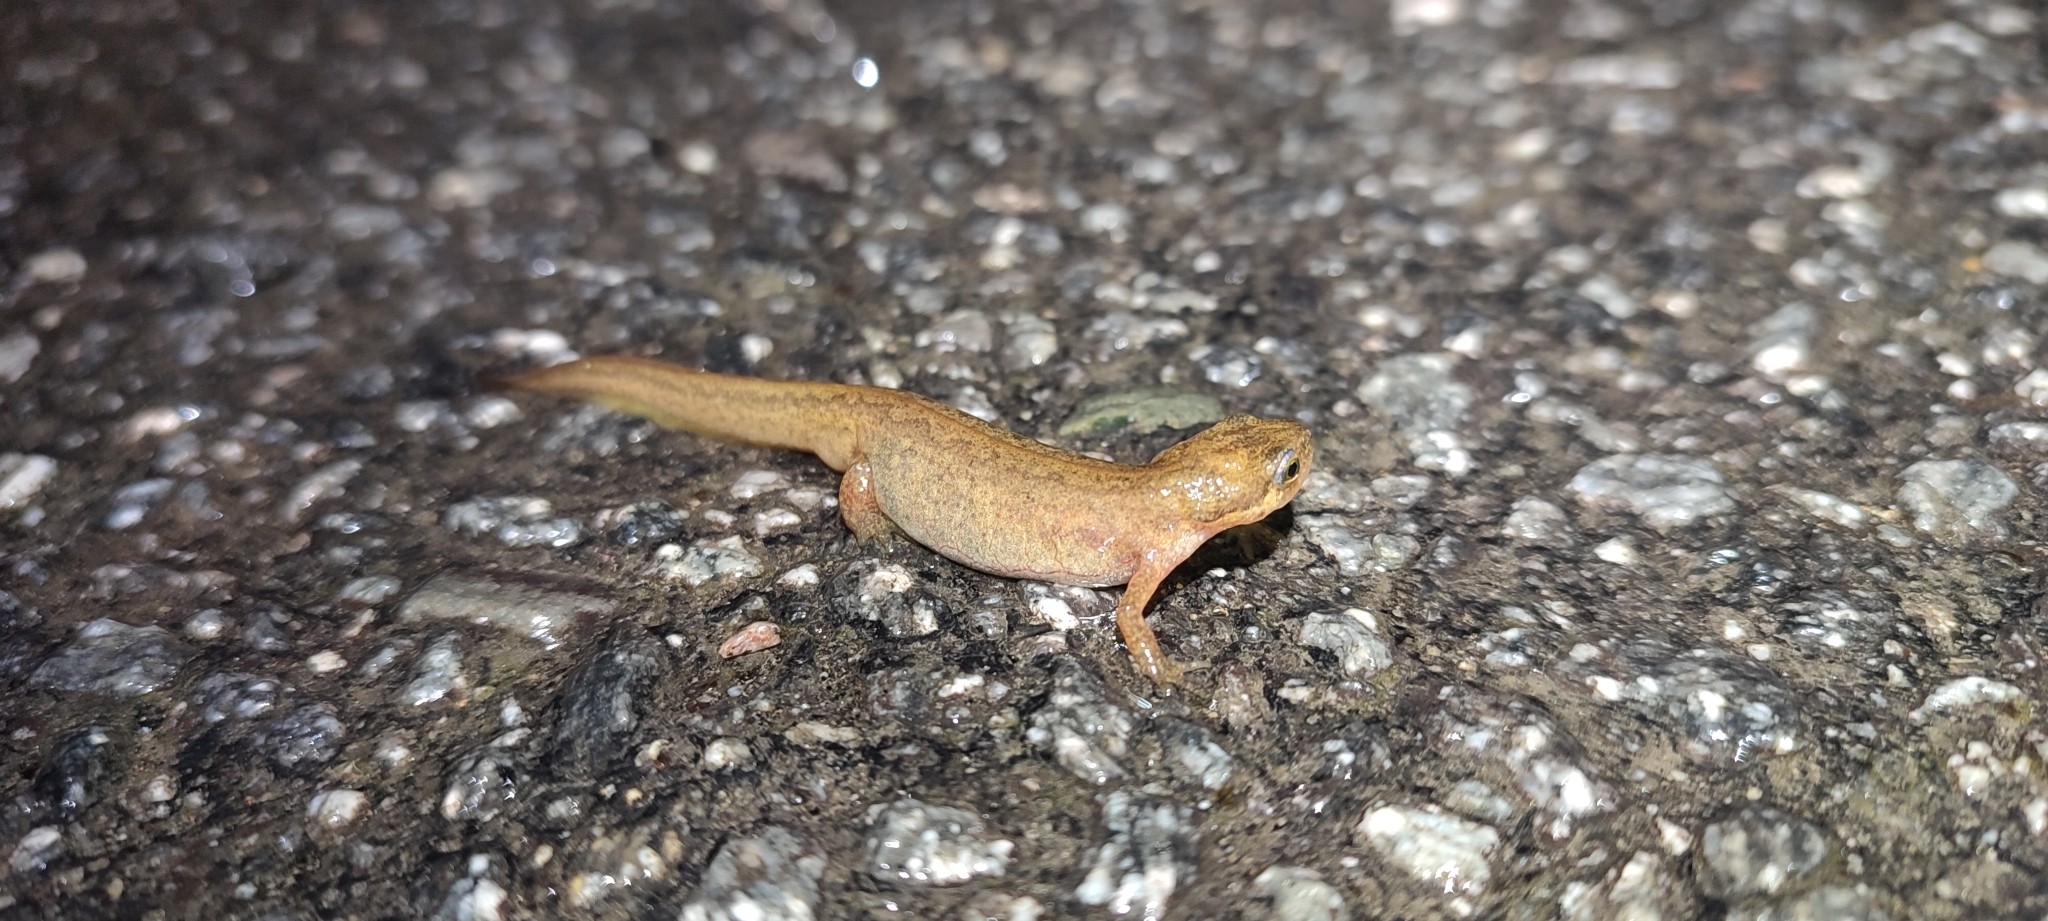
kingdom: Animalia
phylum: Chordata
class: Amphibia
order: Caudata
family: Salamandridae
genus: Lissotriton
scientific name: Lissotriton helveticus
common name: Palmate newt
